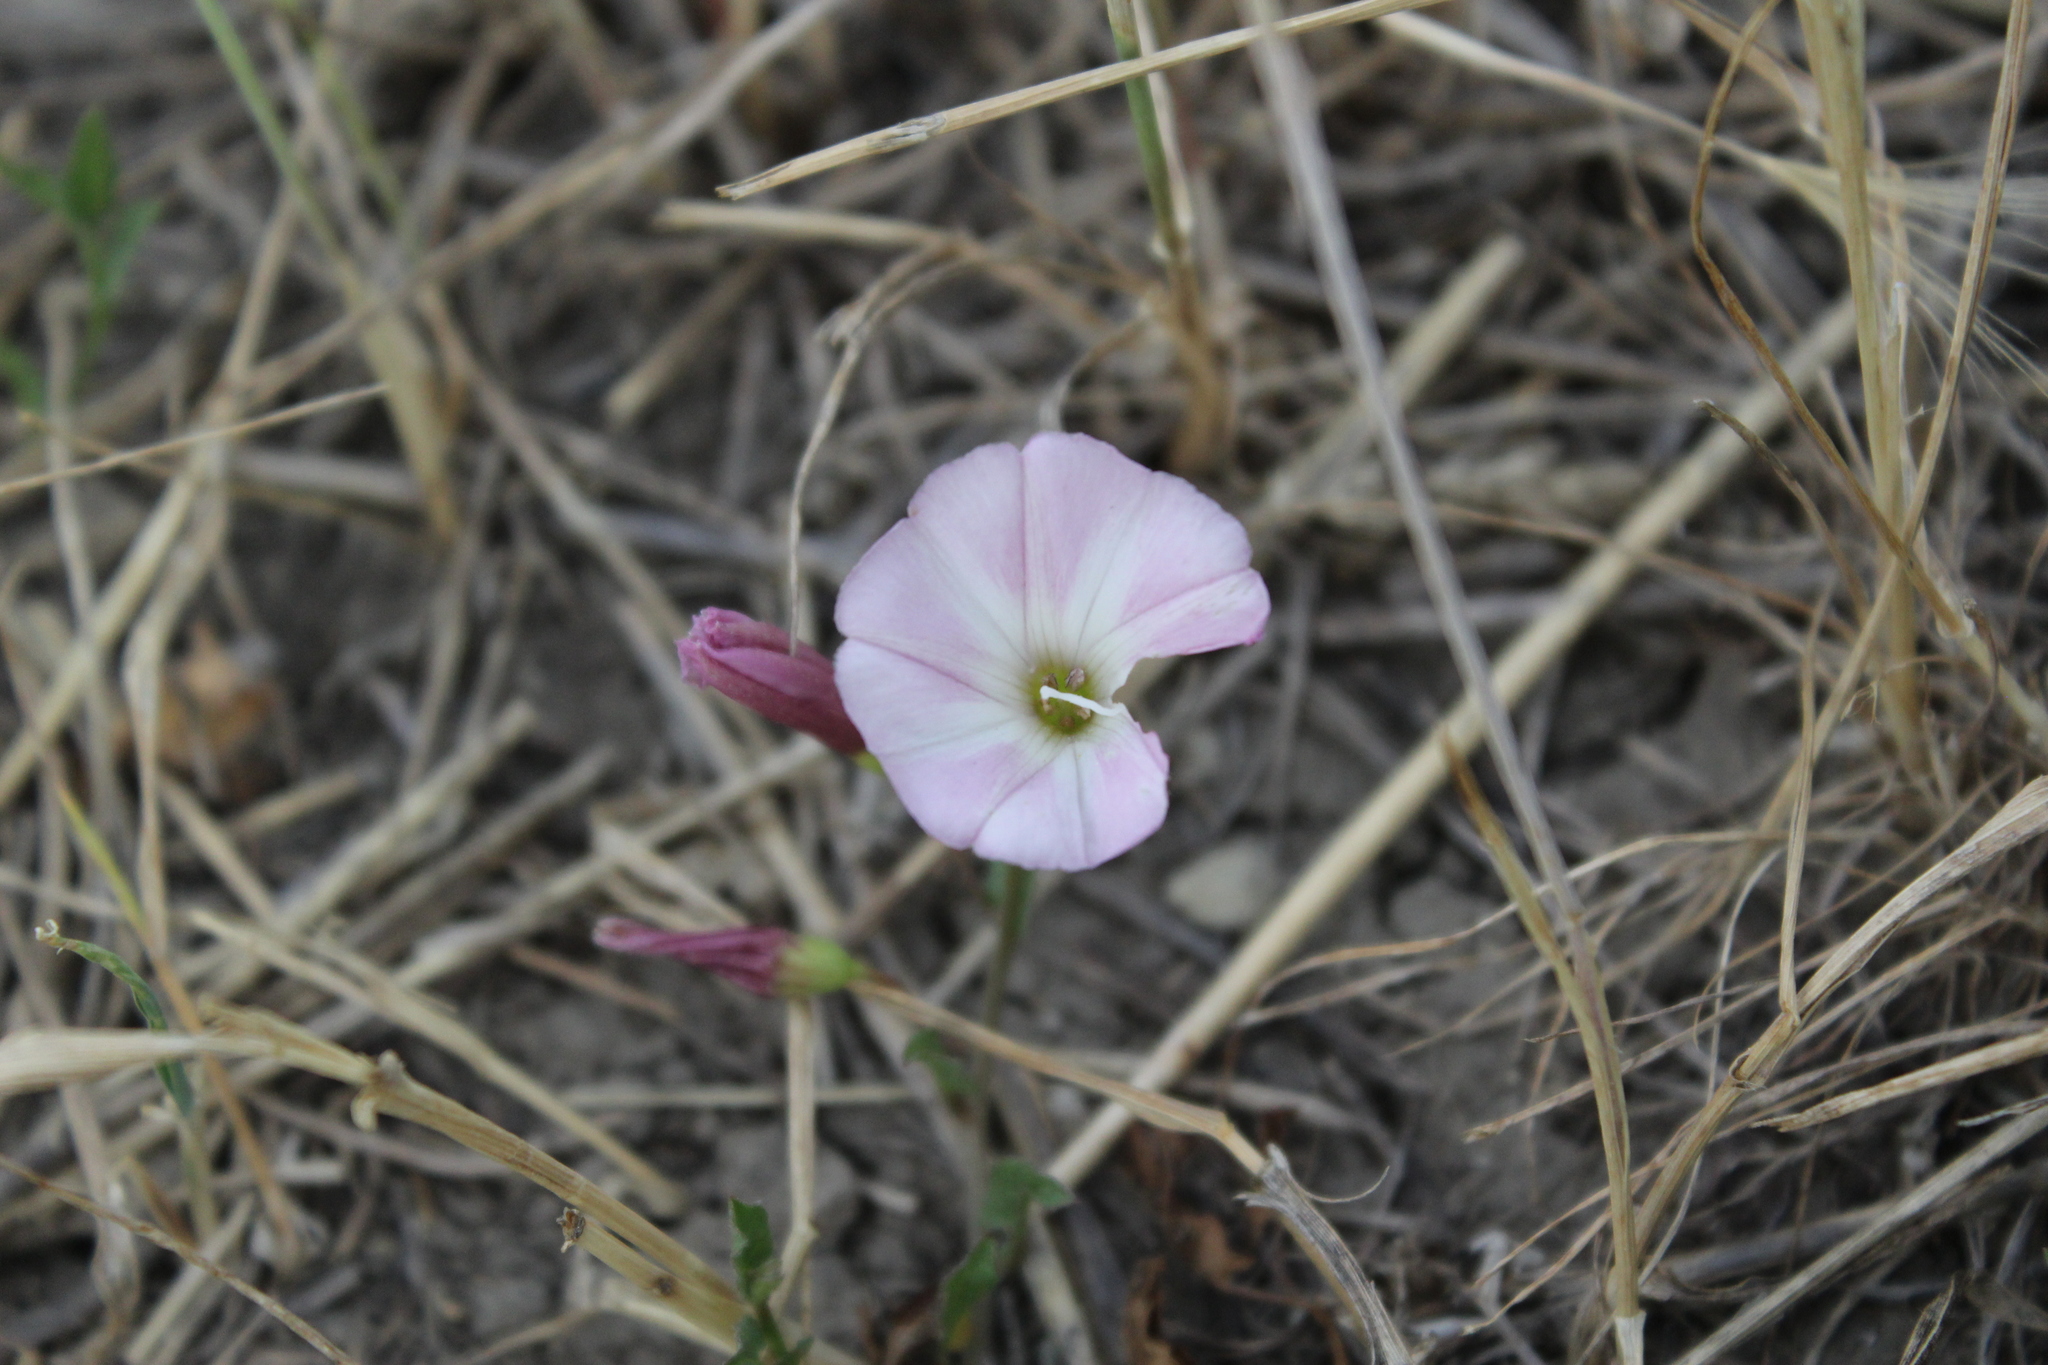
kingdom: Plantae
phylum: Tracheophyta
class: Magnoliopsida
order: Solanales
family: Convolvulaceae
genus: Convolvulus
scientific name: Convolvulus arvensis
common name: Field bindweed
